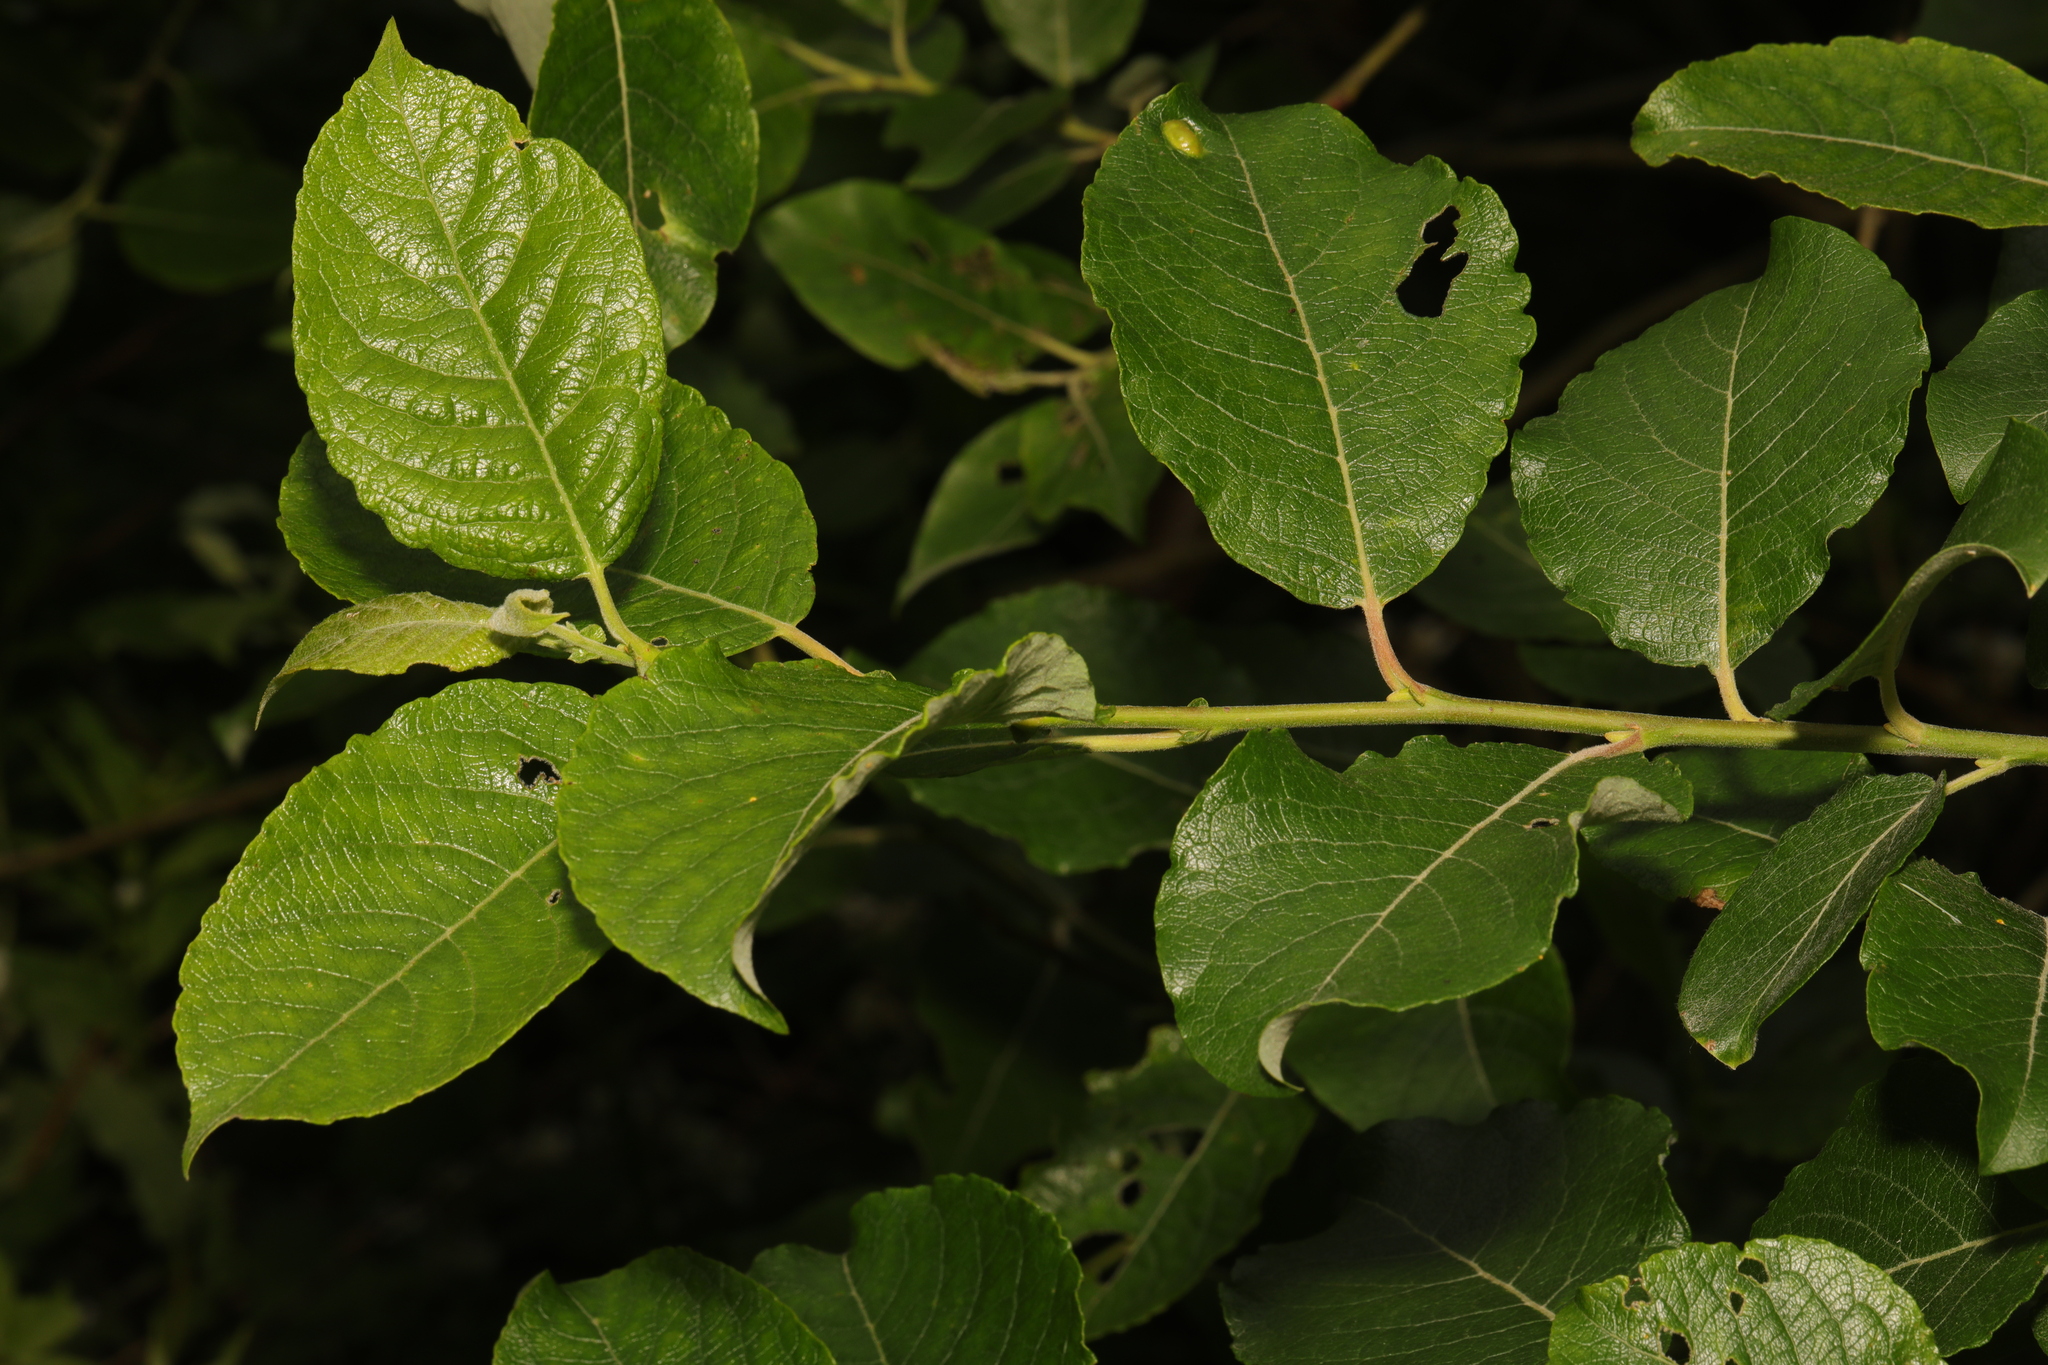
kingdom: Plantae
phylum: Tracheophyta
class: Magnoliopsida
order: Malpighiales
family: Salicaceae
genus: Salix
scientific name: Salix caprea
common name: Goat willow
